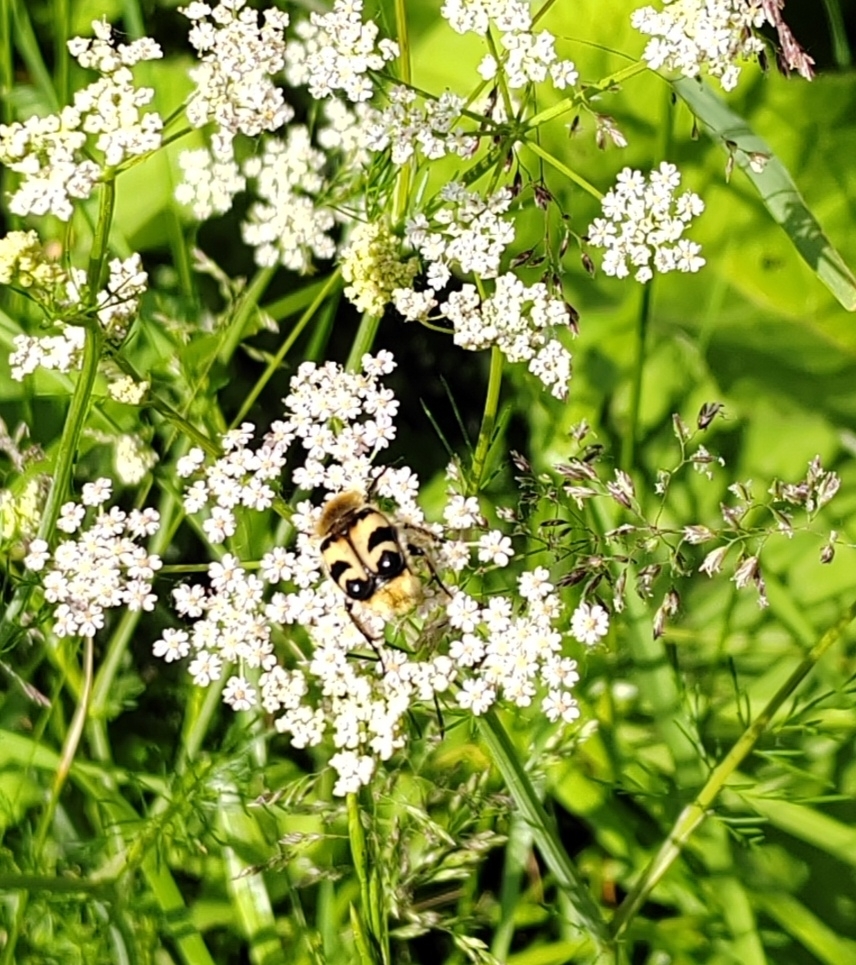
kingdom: Animalia
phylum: Arthropoda
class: Insecta
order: Coleoptera
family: Scarabaeidae
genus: Trichius
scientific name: Trichius fasciatus
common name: Bee beetle
